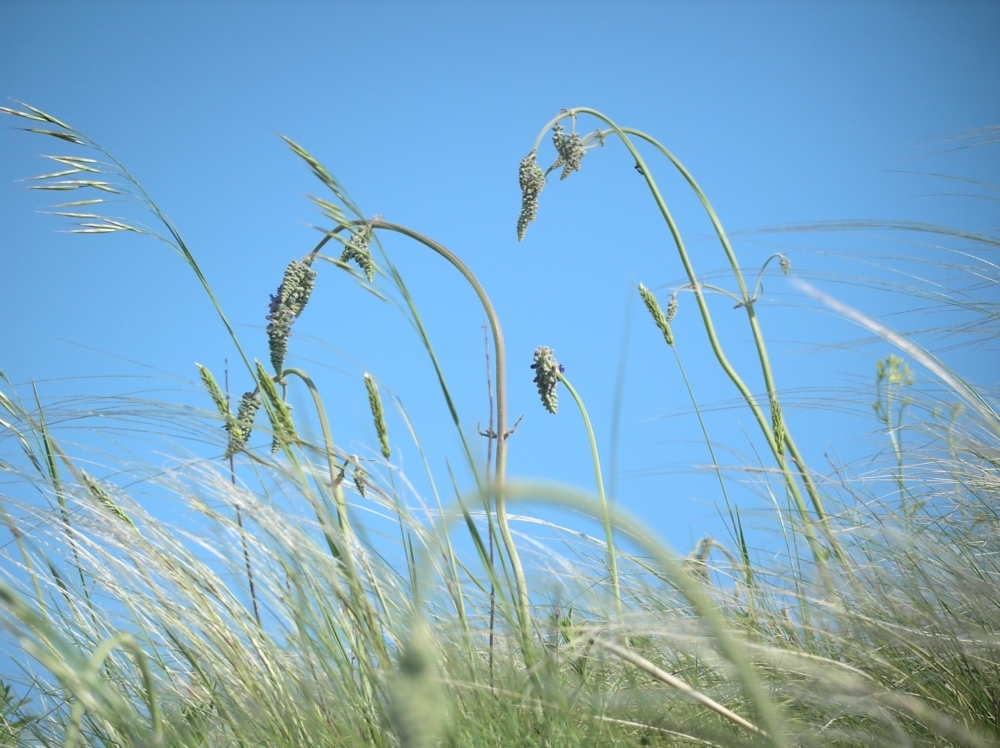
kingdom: Plantae
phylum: Tracheophyta
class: Magnoliopsida
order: Lamiales
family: Lamiaceae
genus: Salvia
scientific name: Salvia nutans
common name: Nodding sage
